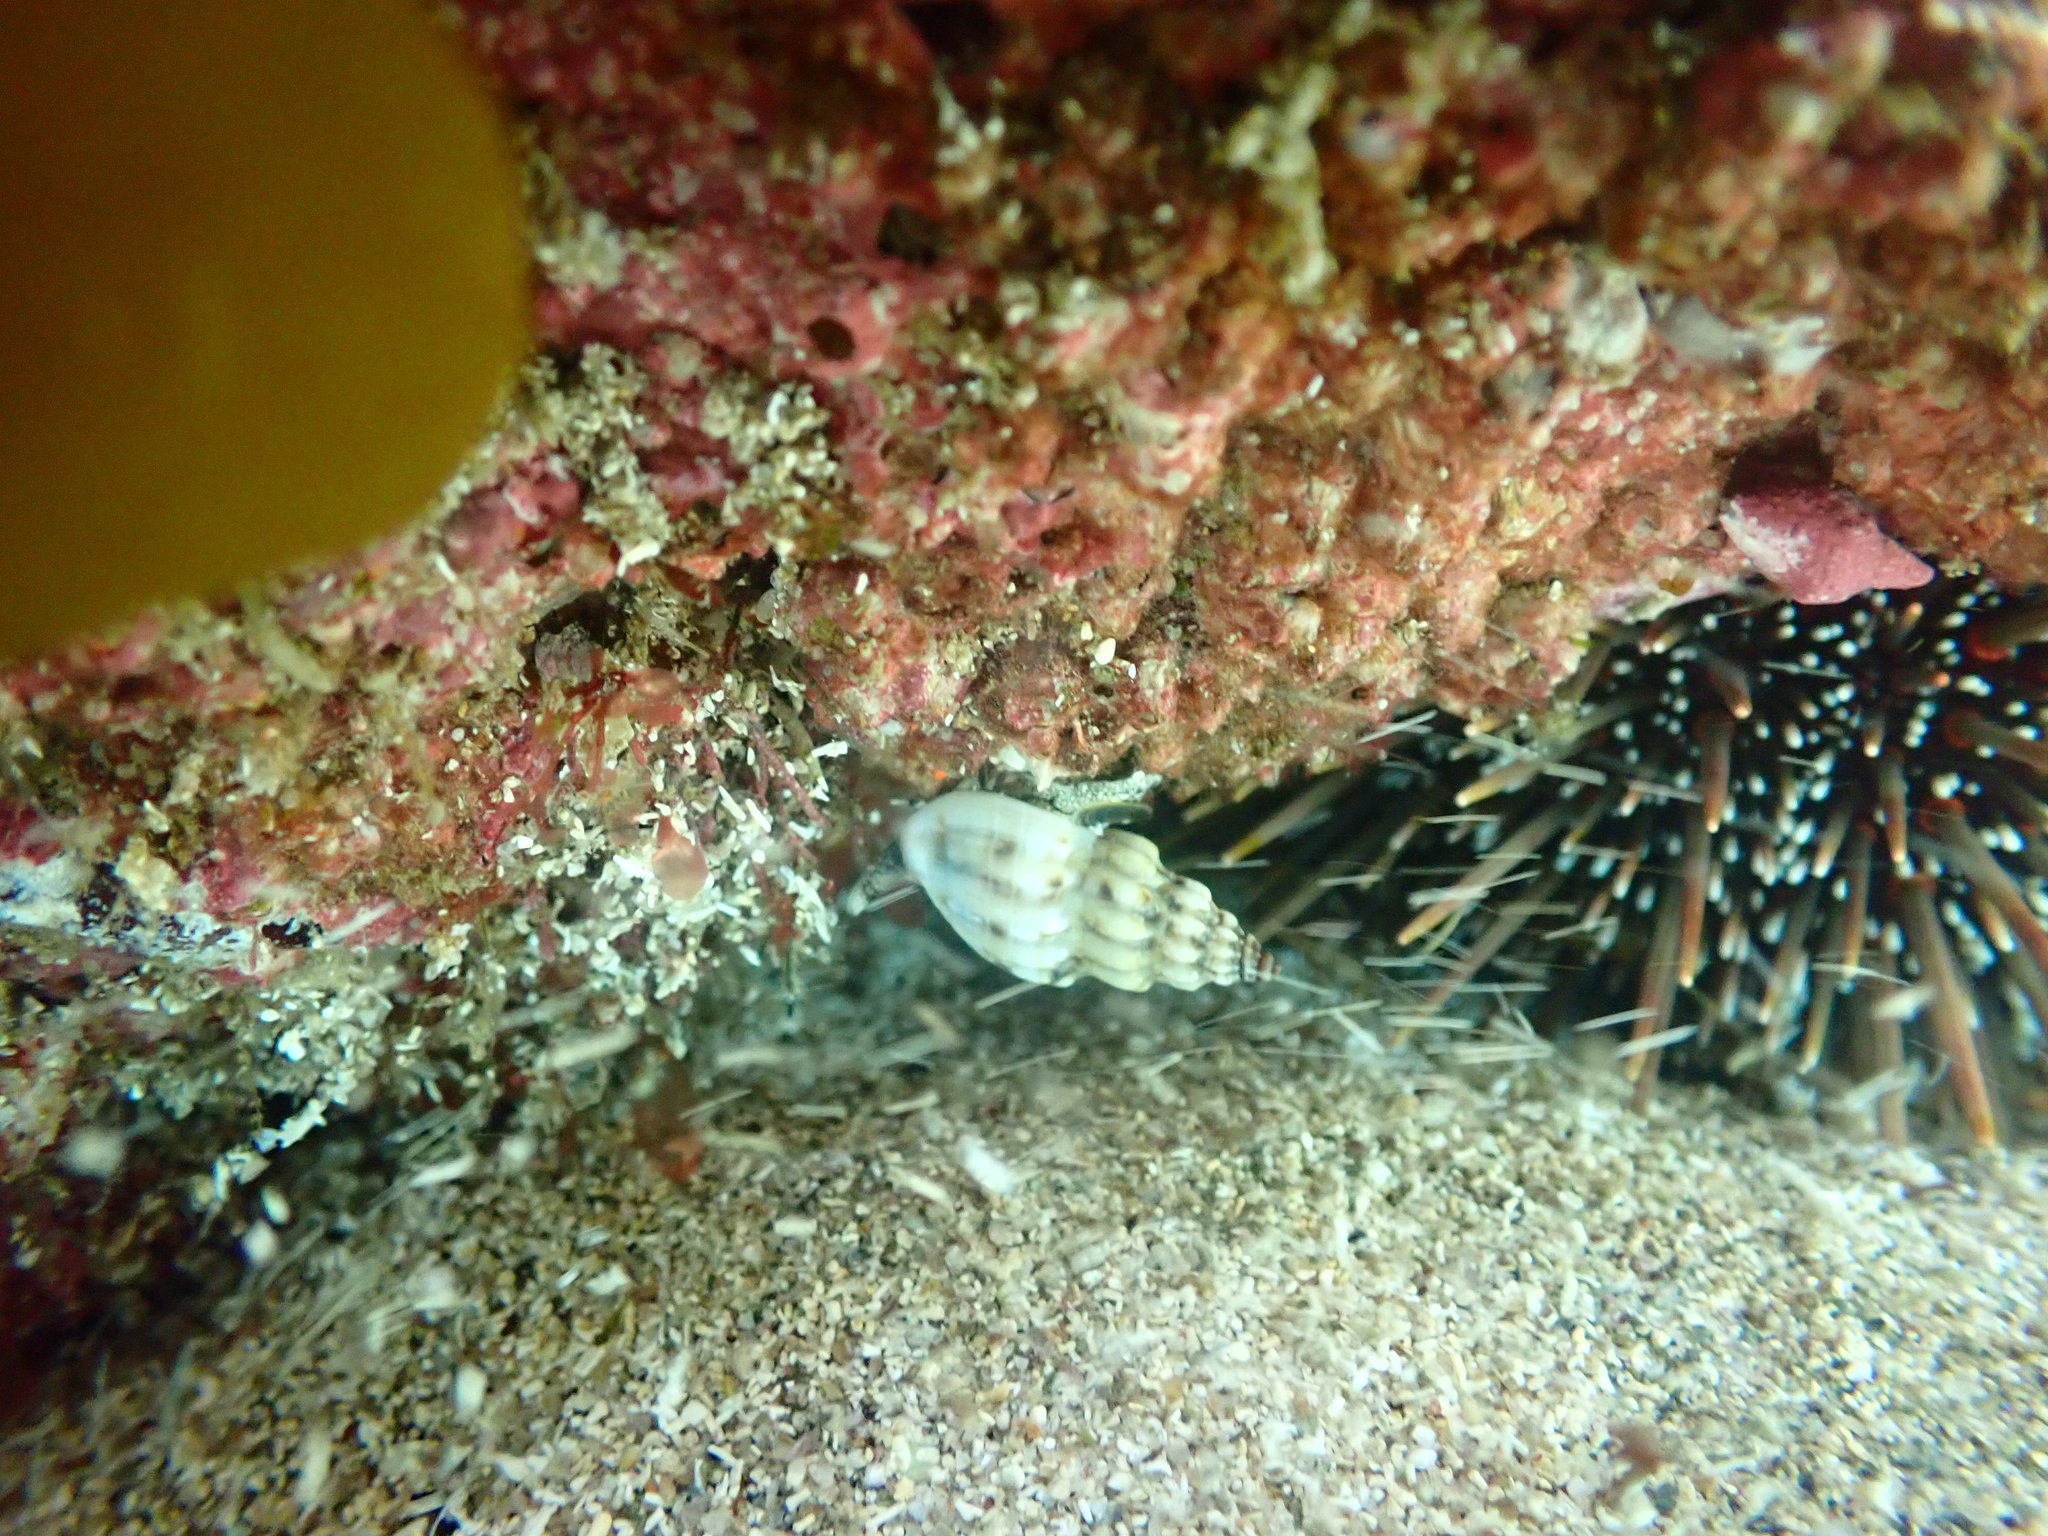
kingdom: Animalia
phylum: Mollusca
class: Gastropoda
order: Neogastropoda
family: Cominellidae
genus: Cominella
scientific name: Cominella quoyana
